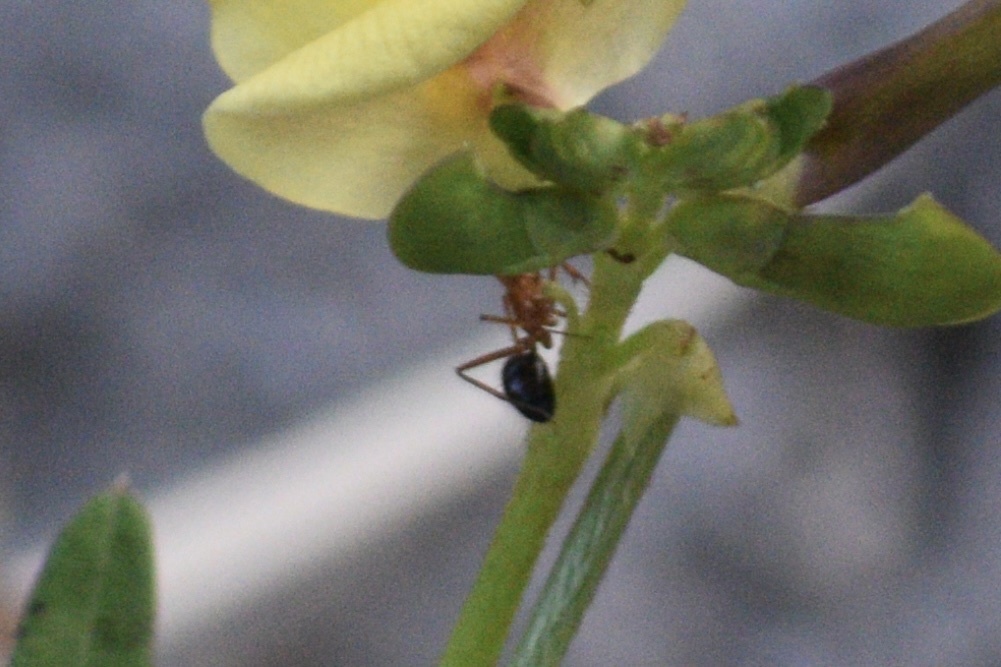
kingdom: Animalia
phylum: Arthropoda
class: Insecta
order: Hymenoptera
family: Formicidae
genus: Camponotus
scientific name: Camponotus floridanus
